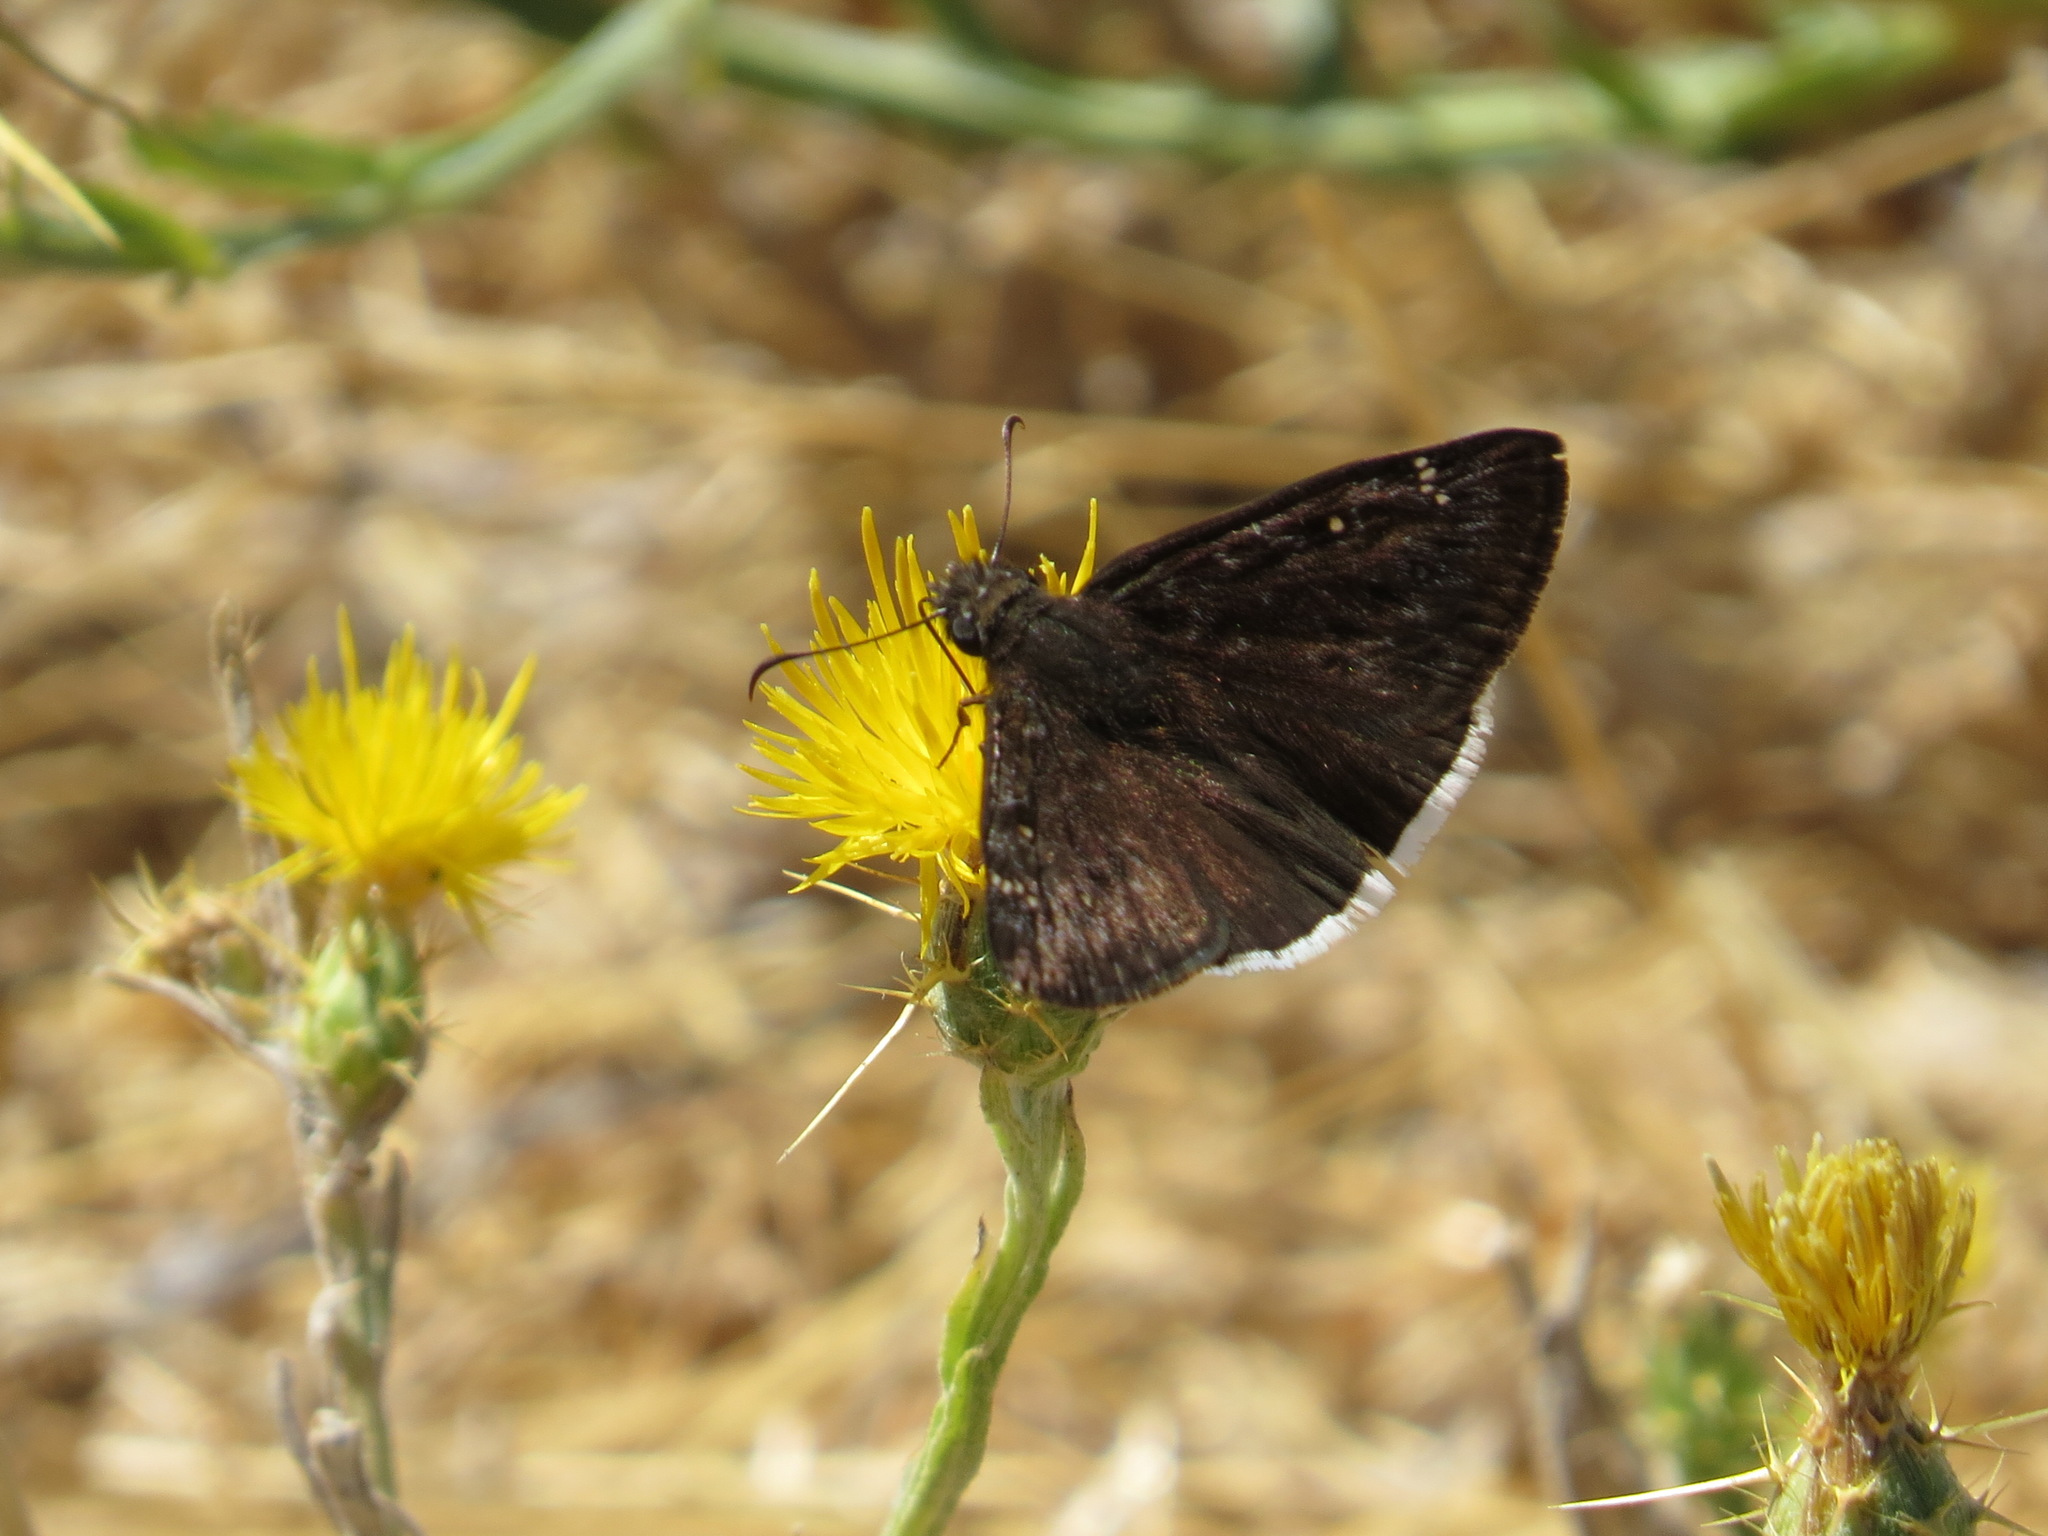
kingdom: Animalia
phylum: Arthropoda
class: Insecta
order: Lepidoptera
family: Hesperiidae
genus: Erynnis
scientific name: Erynnis tristis
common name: Mournful duskywing
